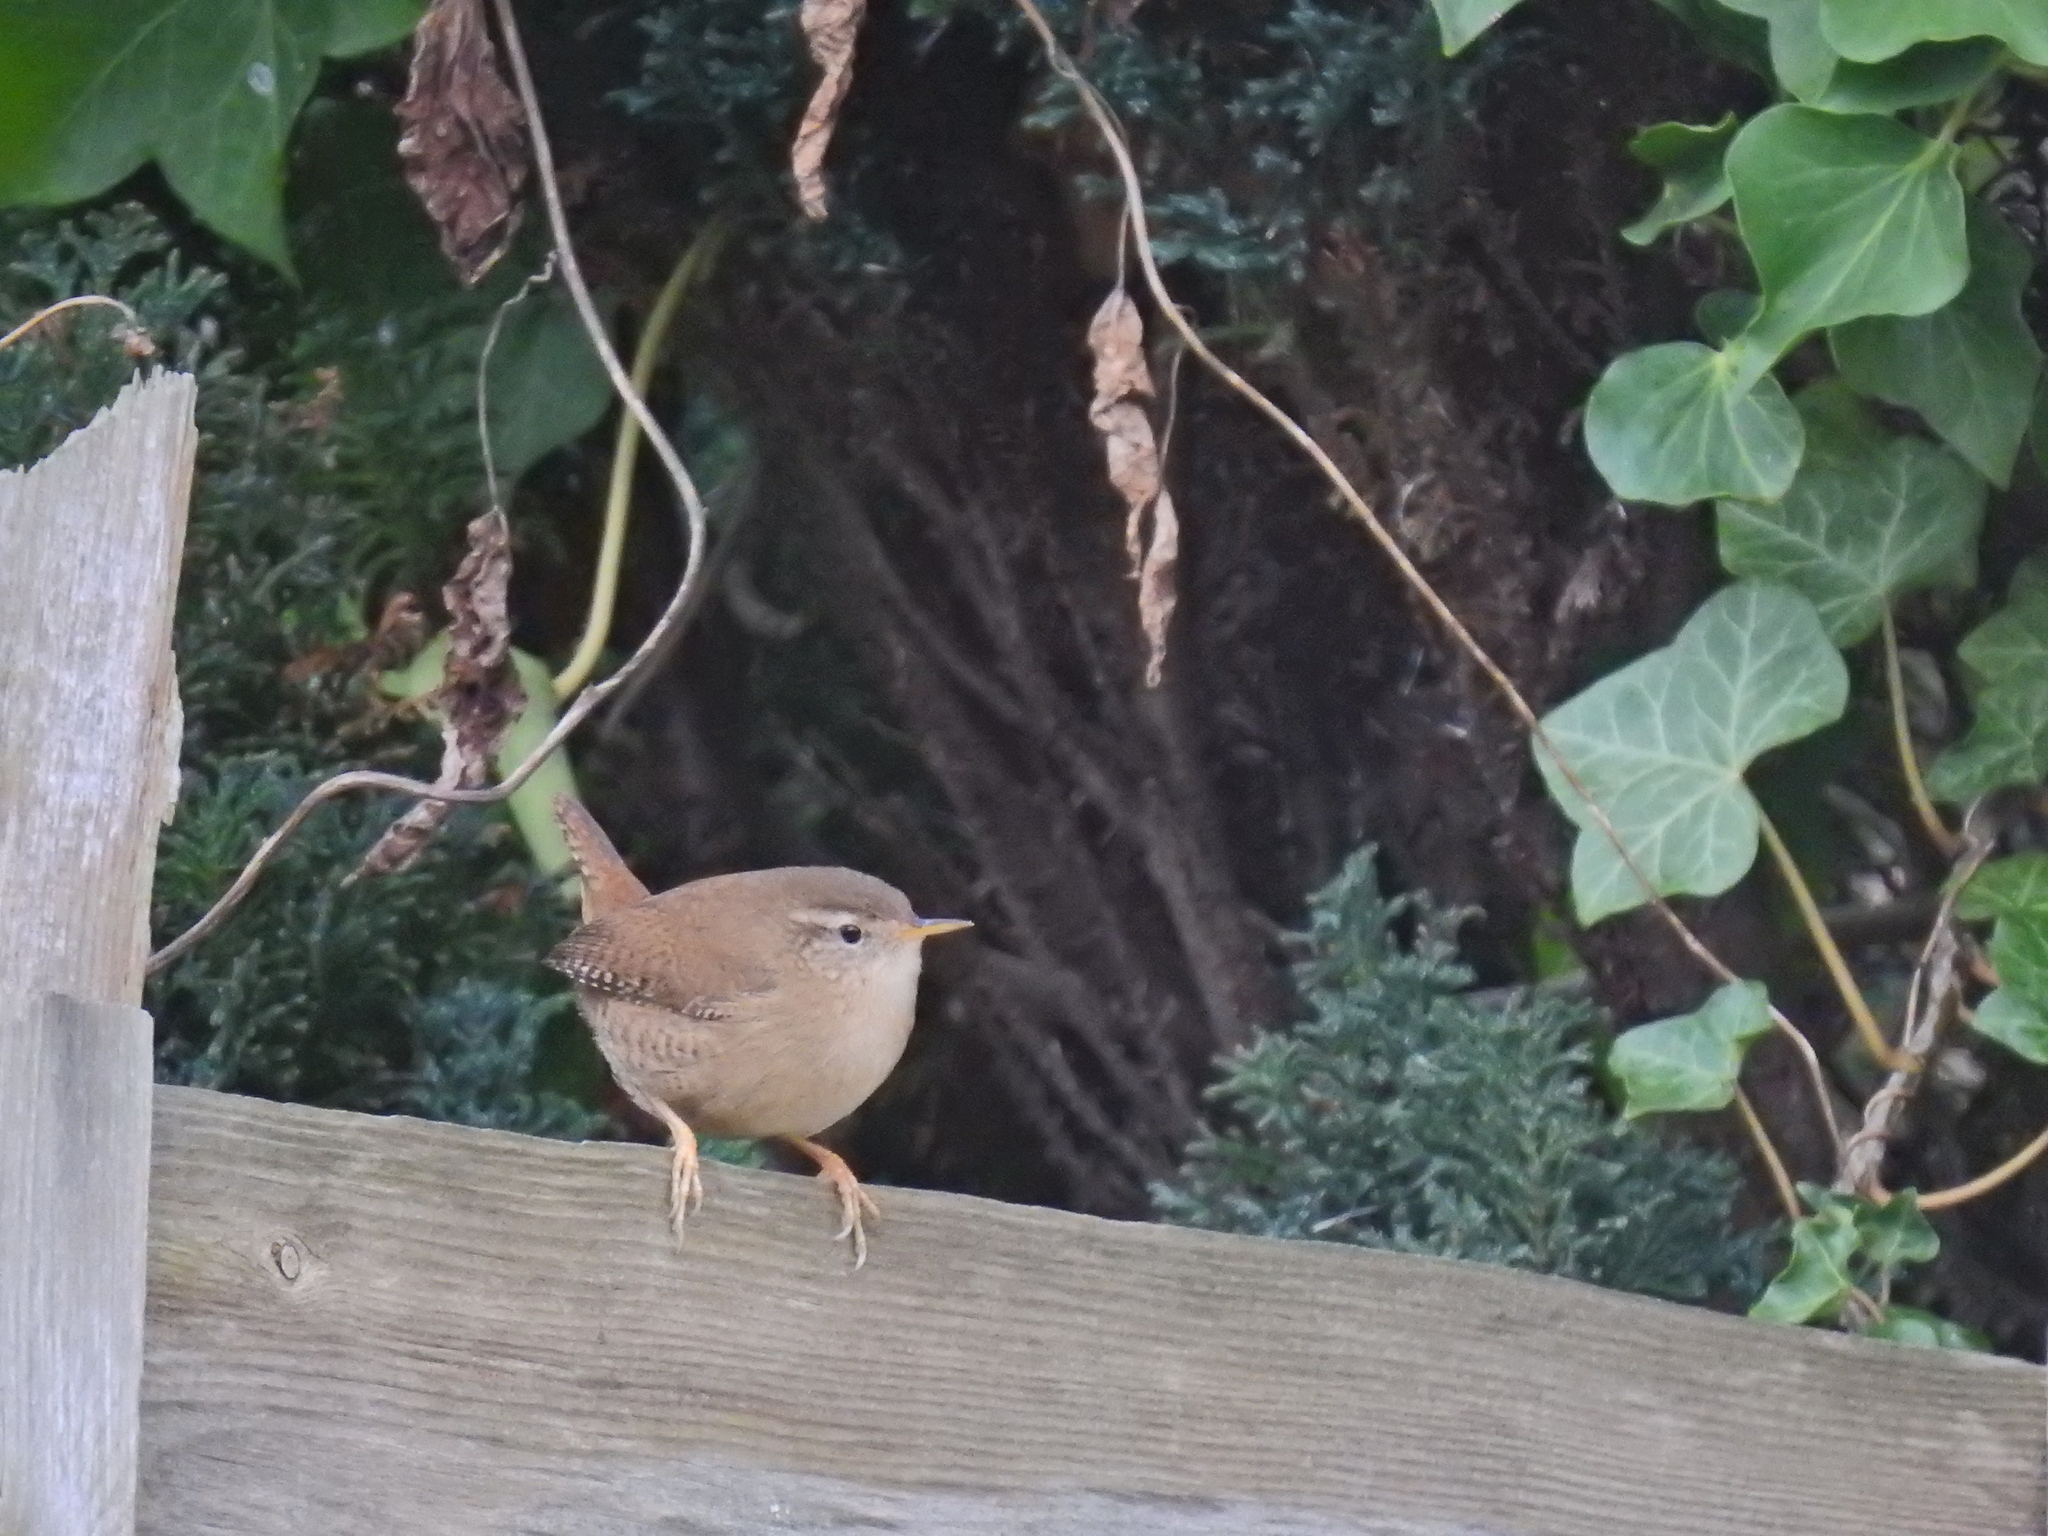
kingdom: Animalia
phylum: Chordata
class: Aves
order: Passeriformes
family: Troglodytidae
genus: Troglodytes
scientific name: Troglodytes troglodytes
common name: Eurasian wren
